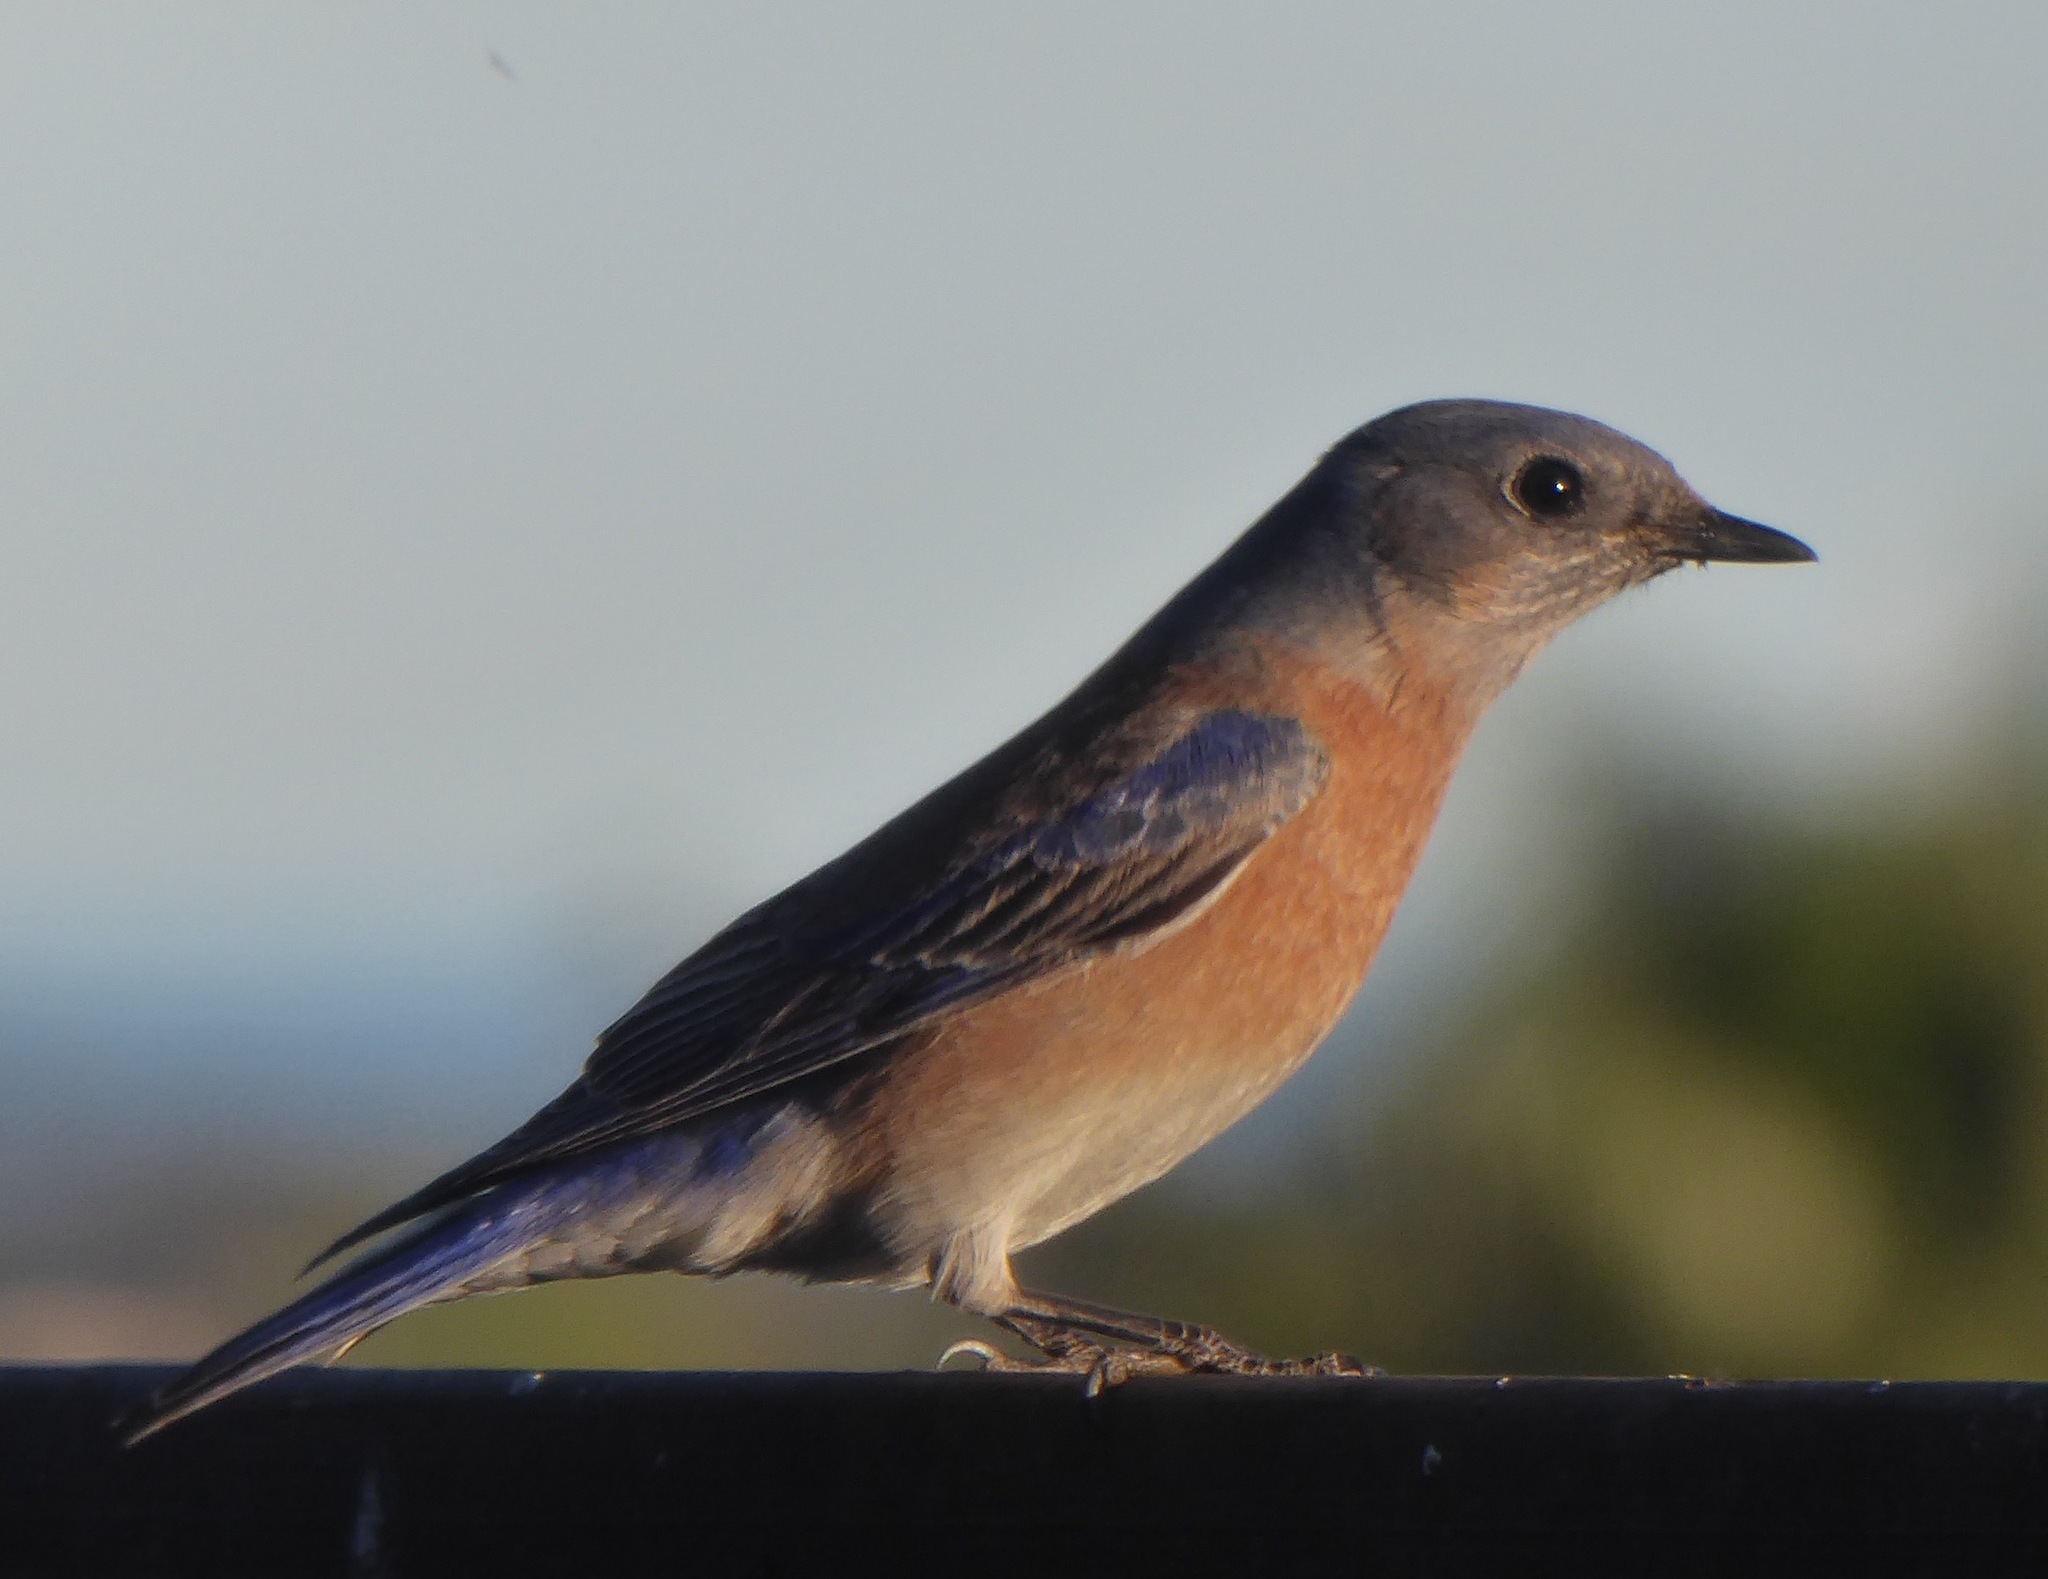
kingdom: Animalia
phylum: Chordata
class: Aves
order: Passeriformes
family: Turdidae
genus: Sialia
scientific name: Sialia mexicana
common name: Western bluebird
